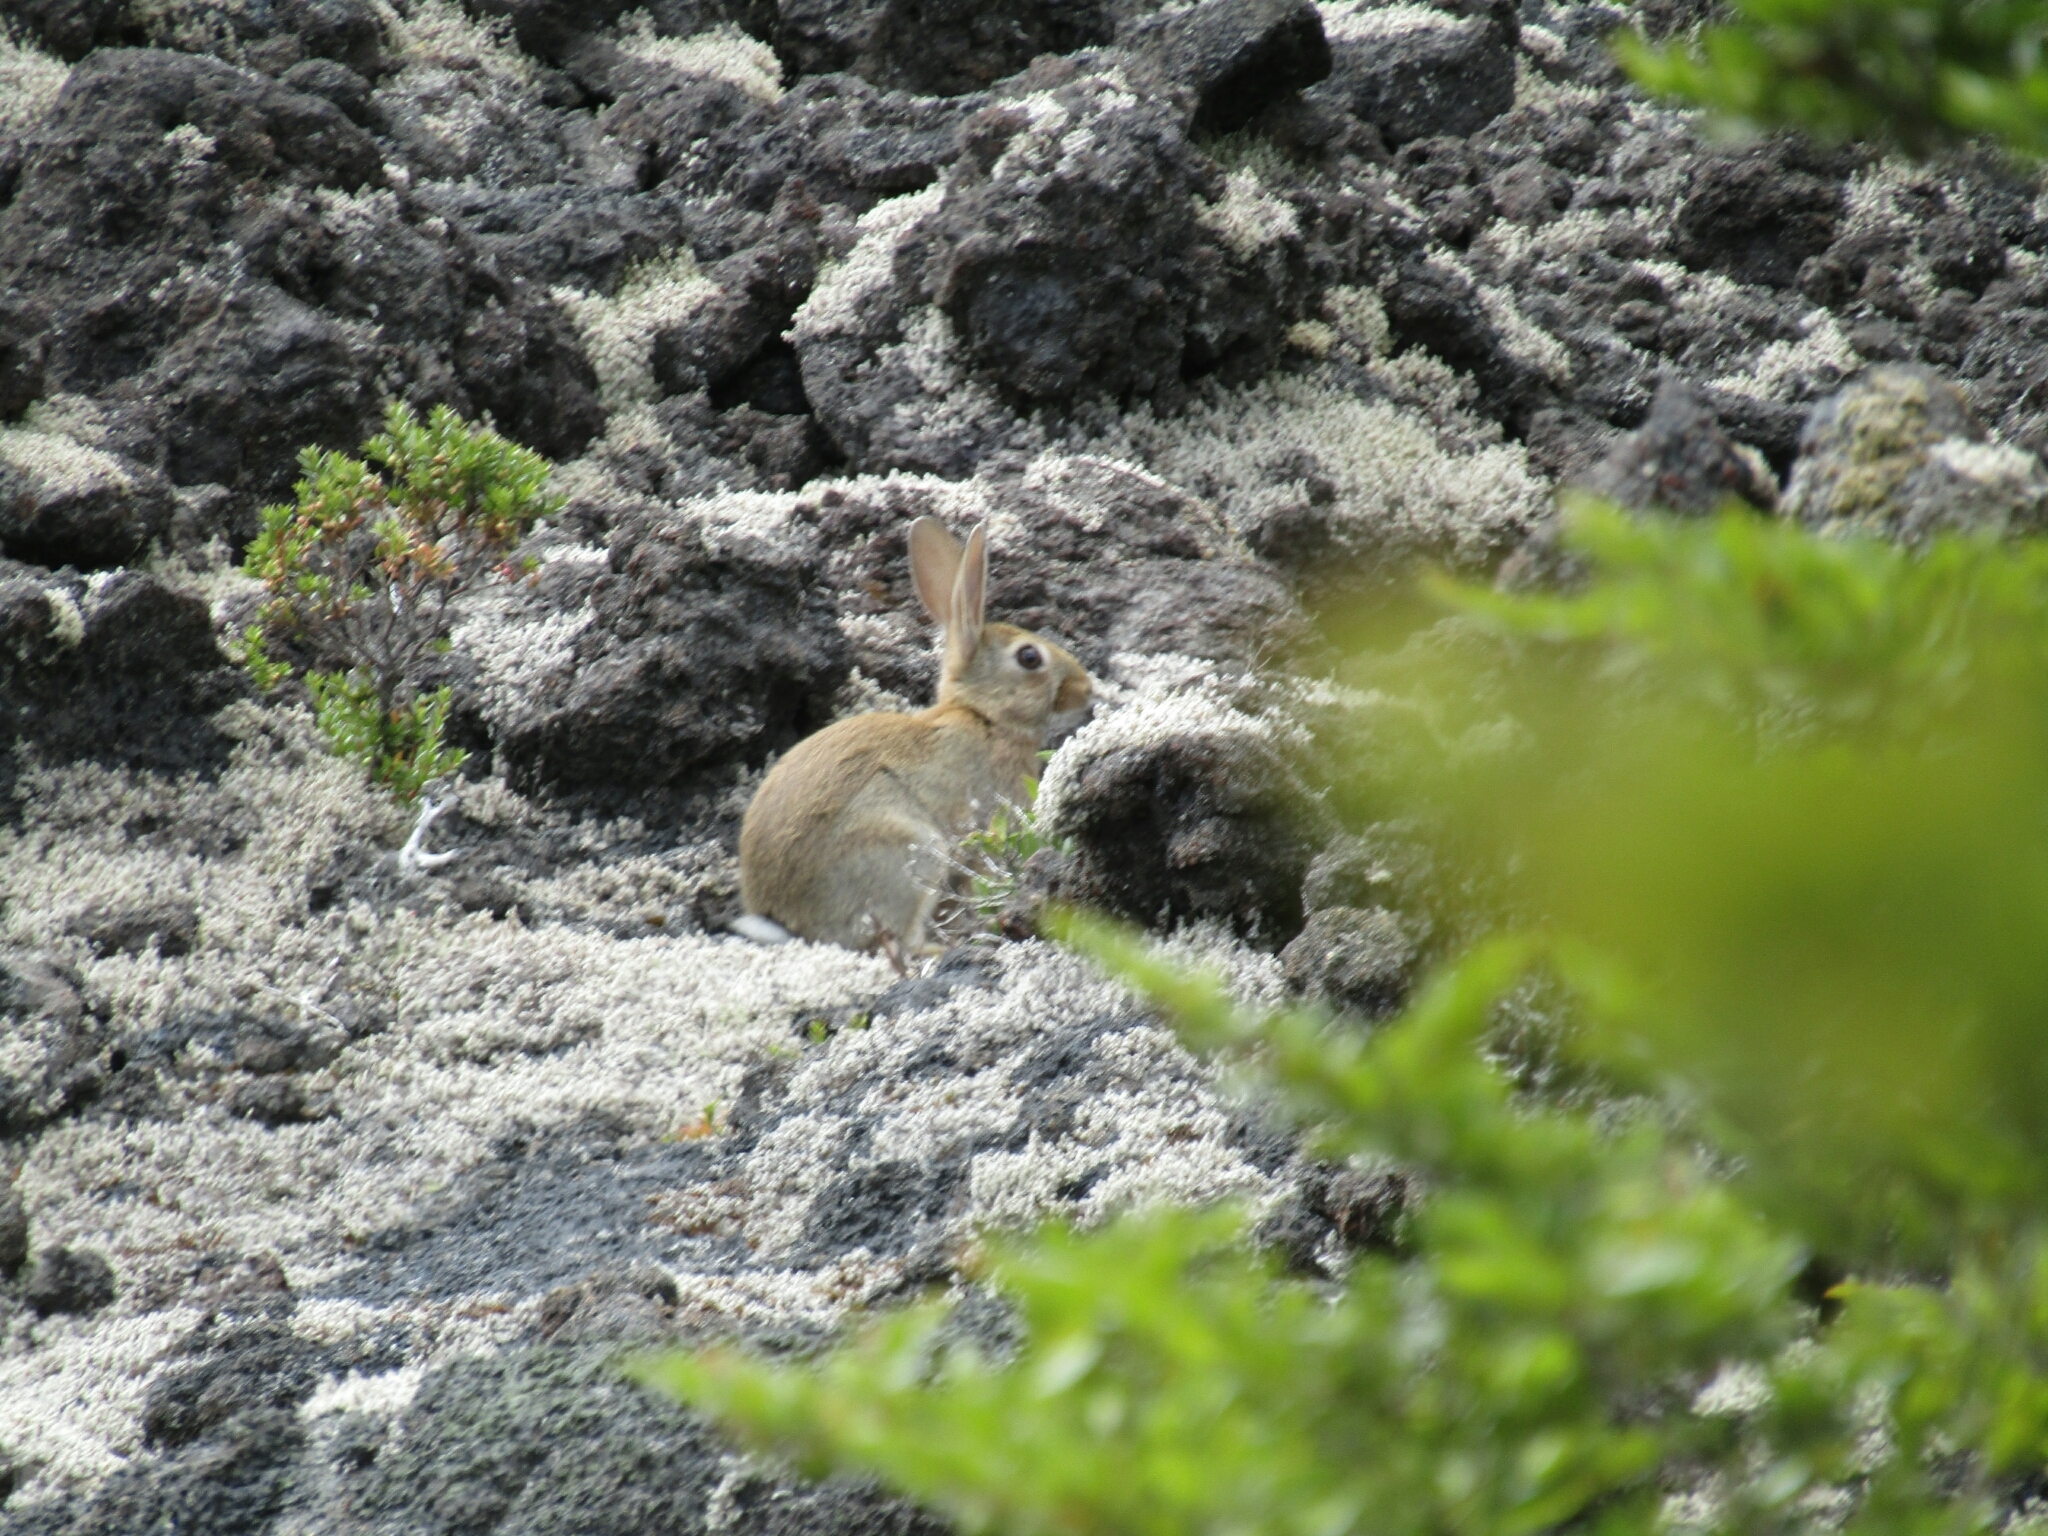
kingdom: Animalia
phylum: Chordata
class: Mammalia
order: Lagomorpha
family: Leporidae
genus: Oryctolagus
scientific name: Oryctolagus cuniculus
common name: European rabbit
